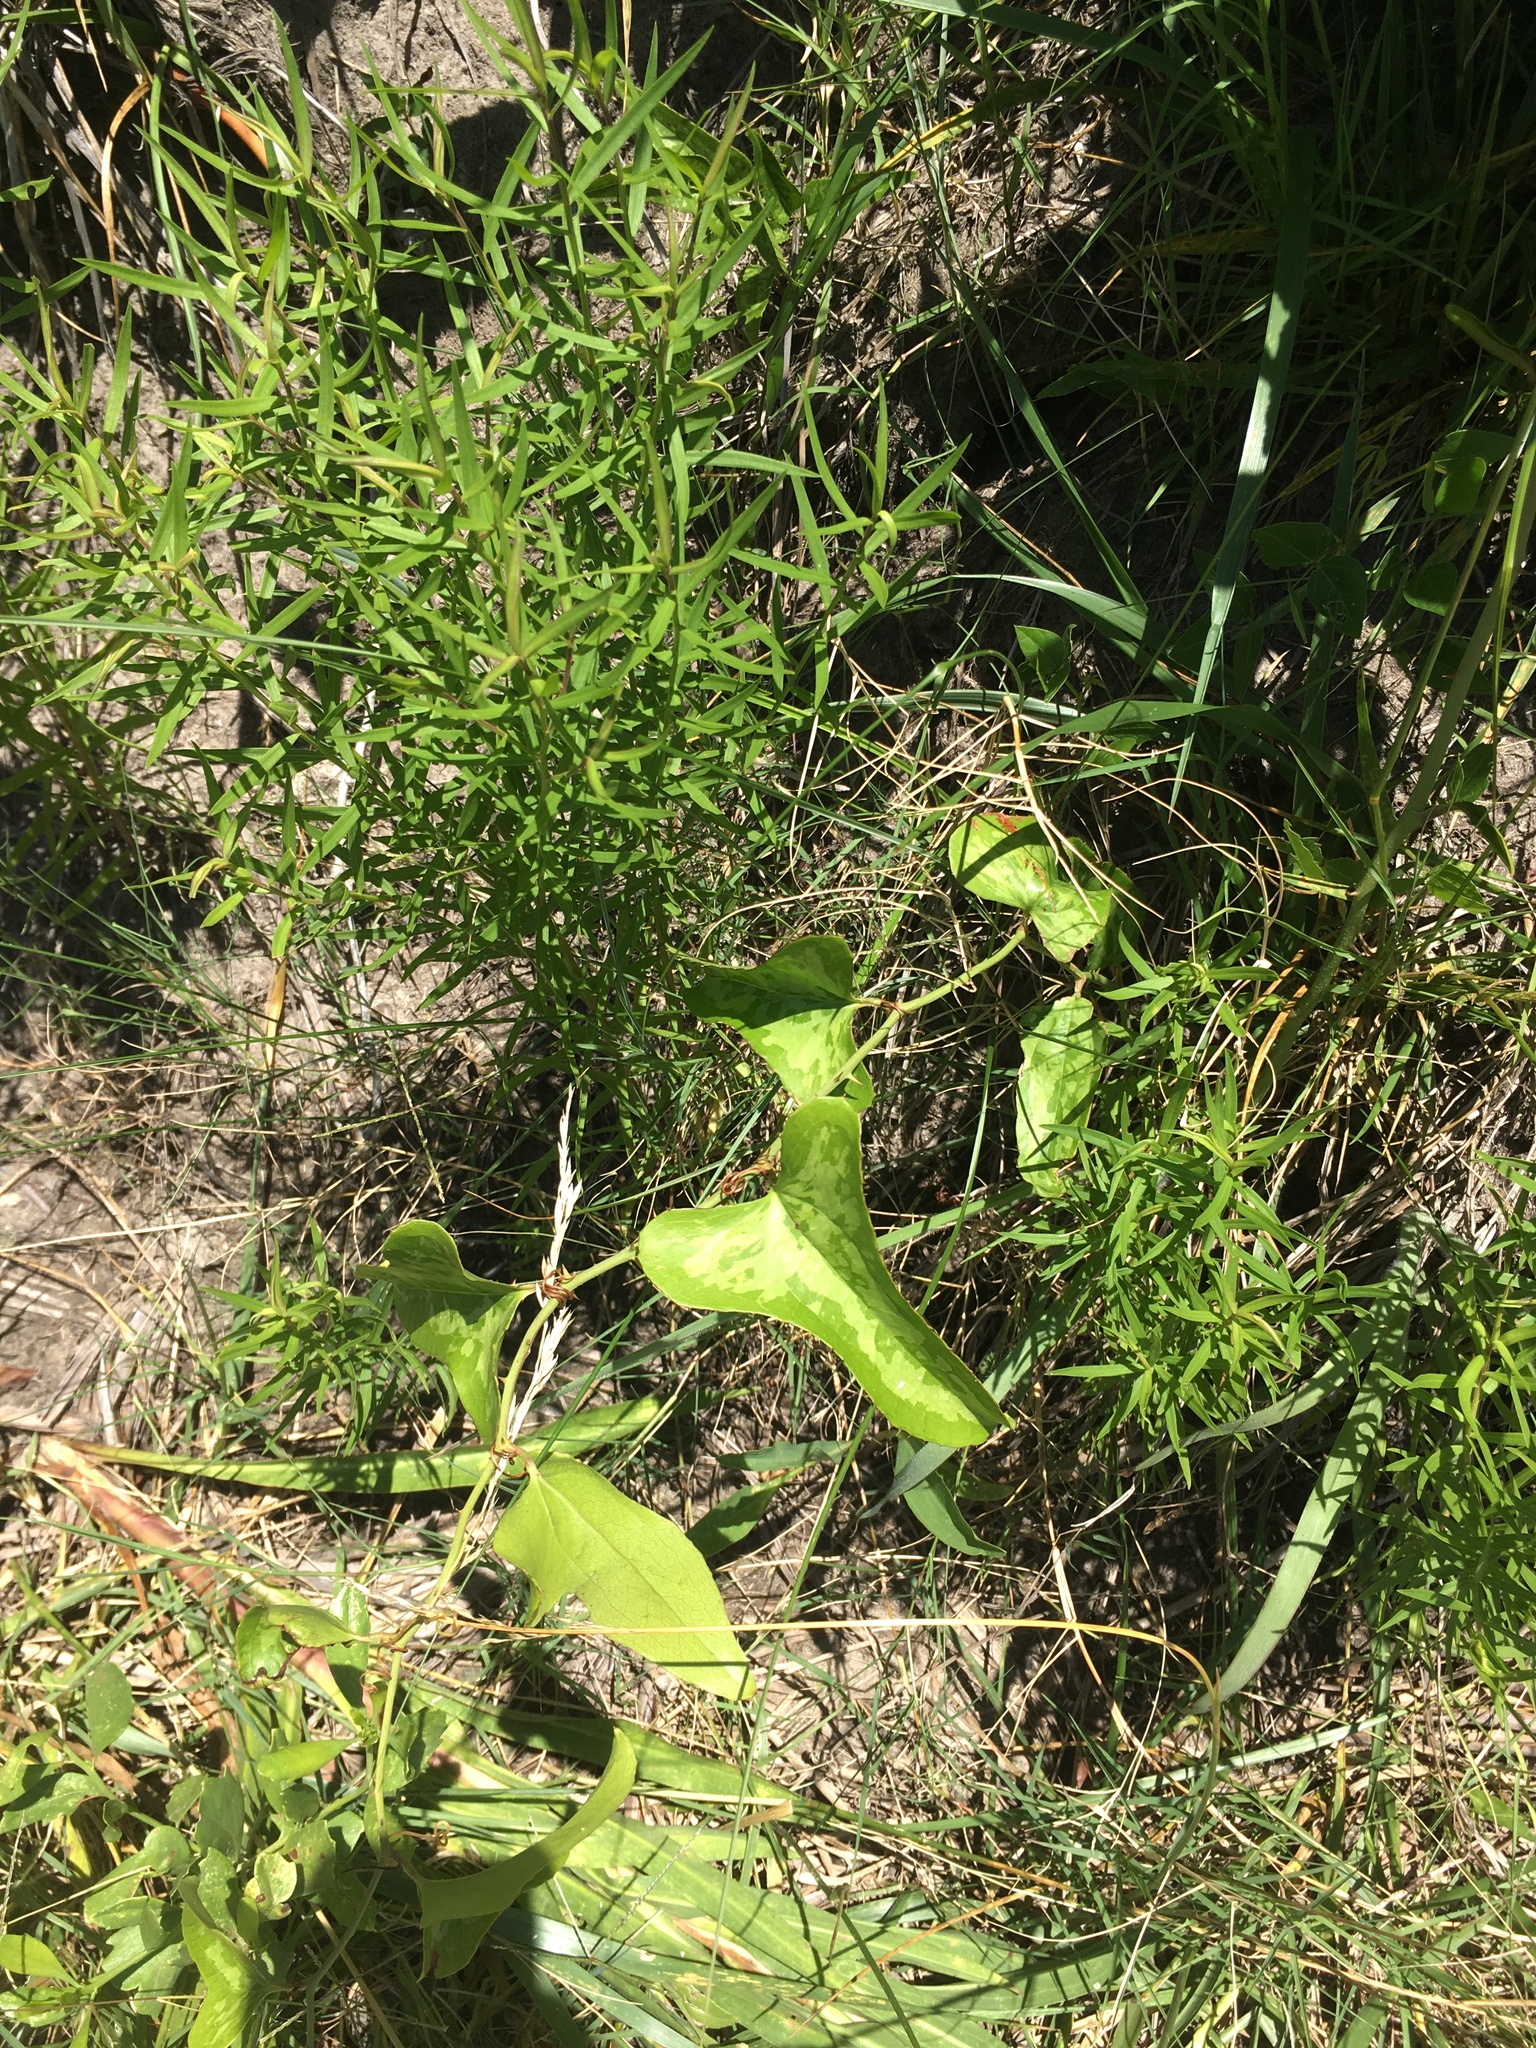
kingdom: Plantae
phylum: Tracheophyta
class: Liliopsida
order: Liliales
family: Smilacaceae
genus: Smilax
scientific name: Smilax bona-nox
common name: Catbrier
